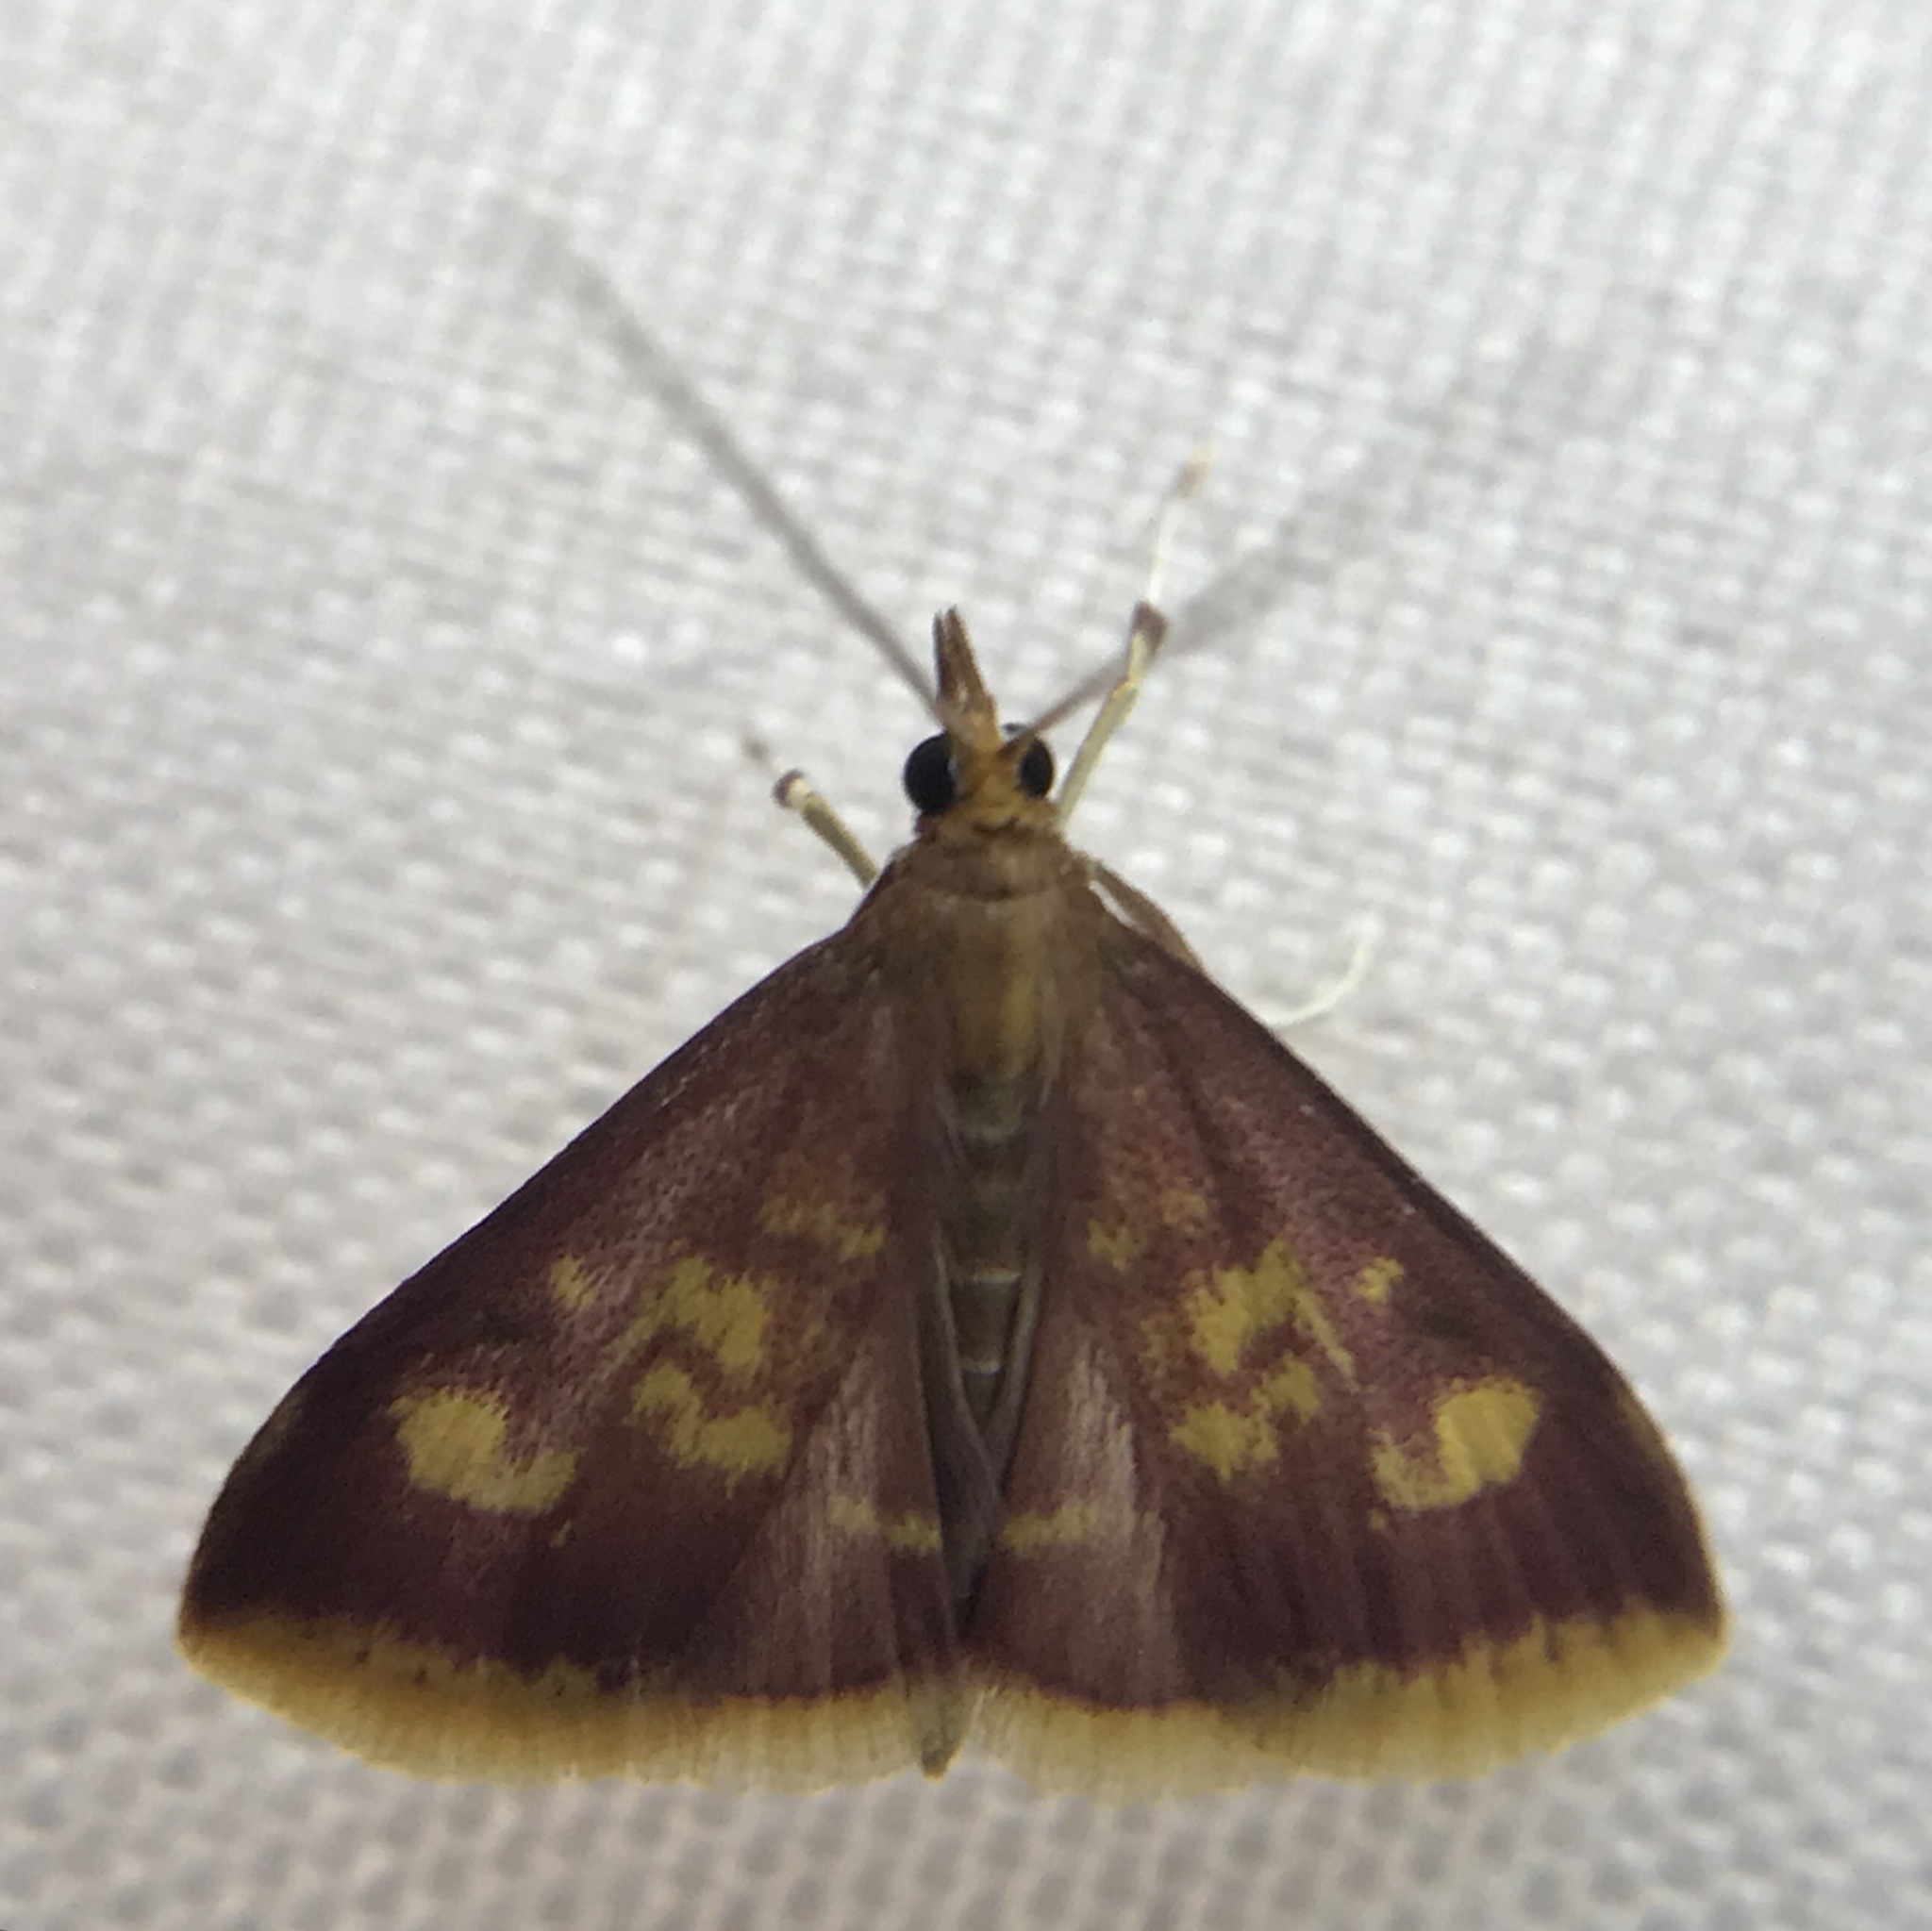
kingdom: Animalia
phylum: Arthropoda
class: Insecta
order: Lepidoptera
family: Crambidae
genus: Pyrausta
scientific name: Pyrausta acrionalis
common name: Mint-loving pyrausta moth
